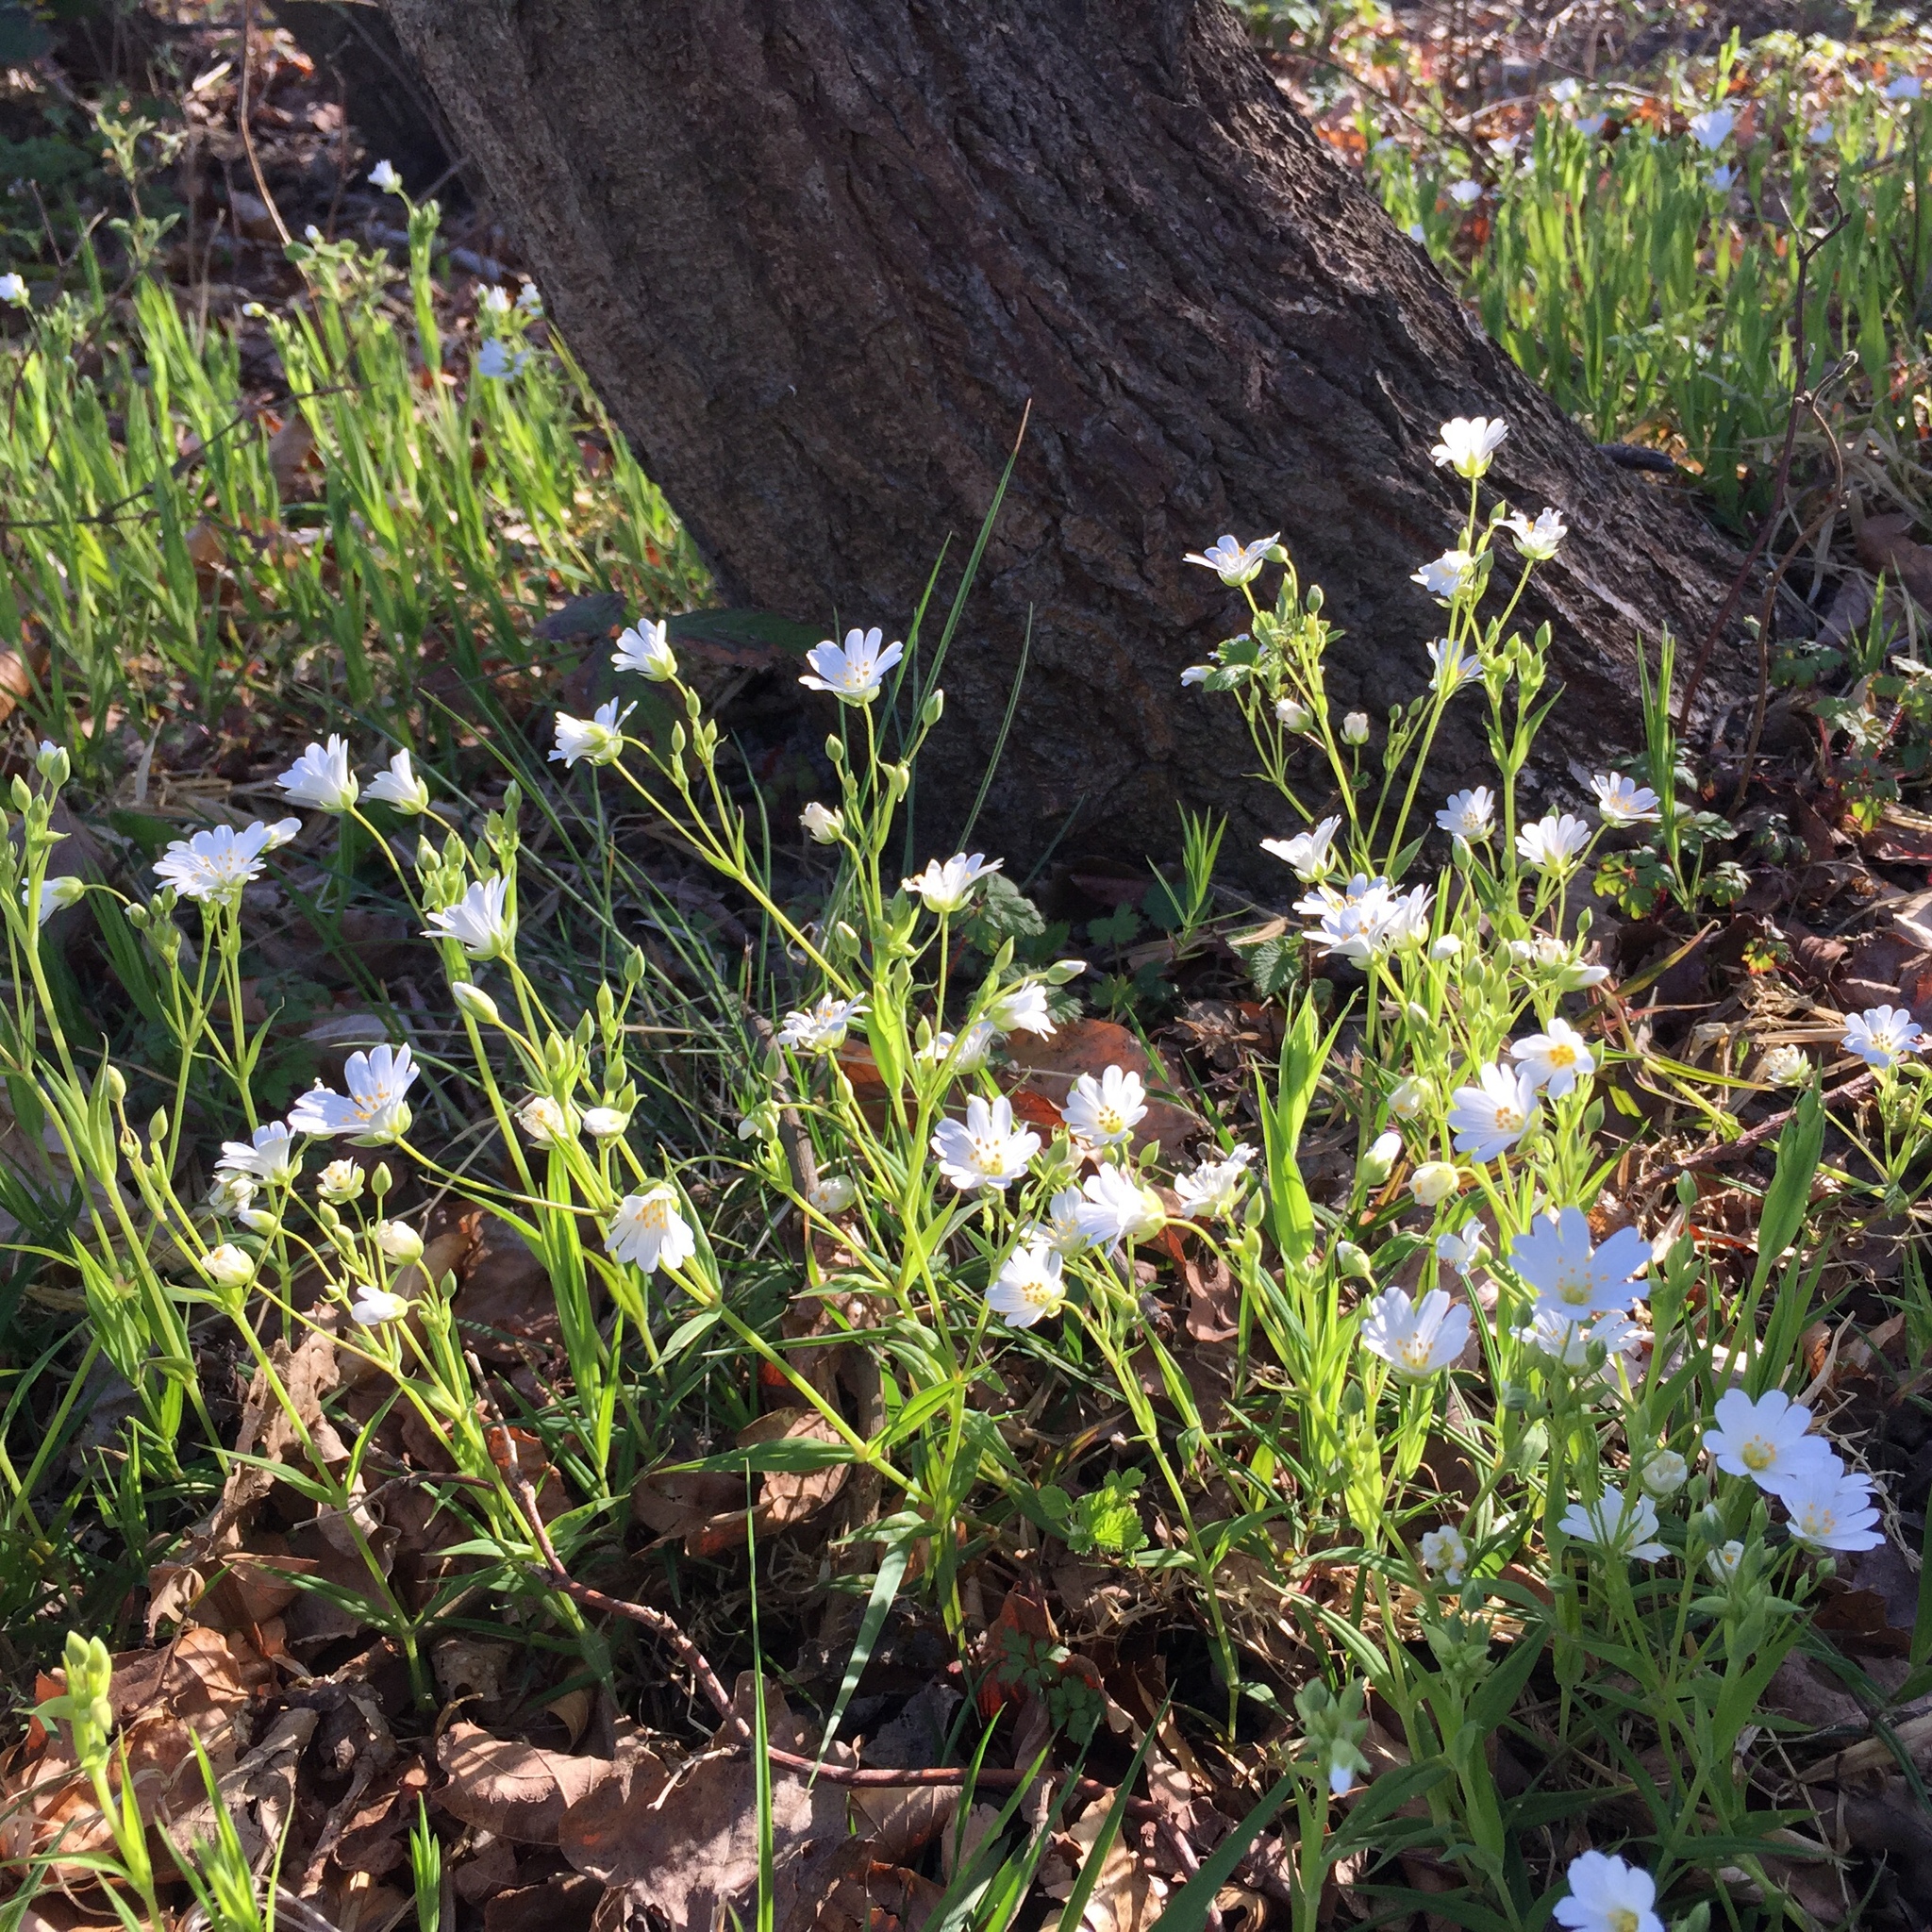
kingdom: Plantae
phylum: Tracheophyta
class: Magnoliopsida
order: Caryophyllales
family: Caryophyllaceae
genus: Rabelera
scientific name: Rabelera holostea
